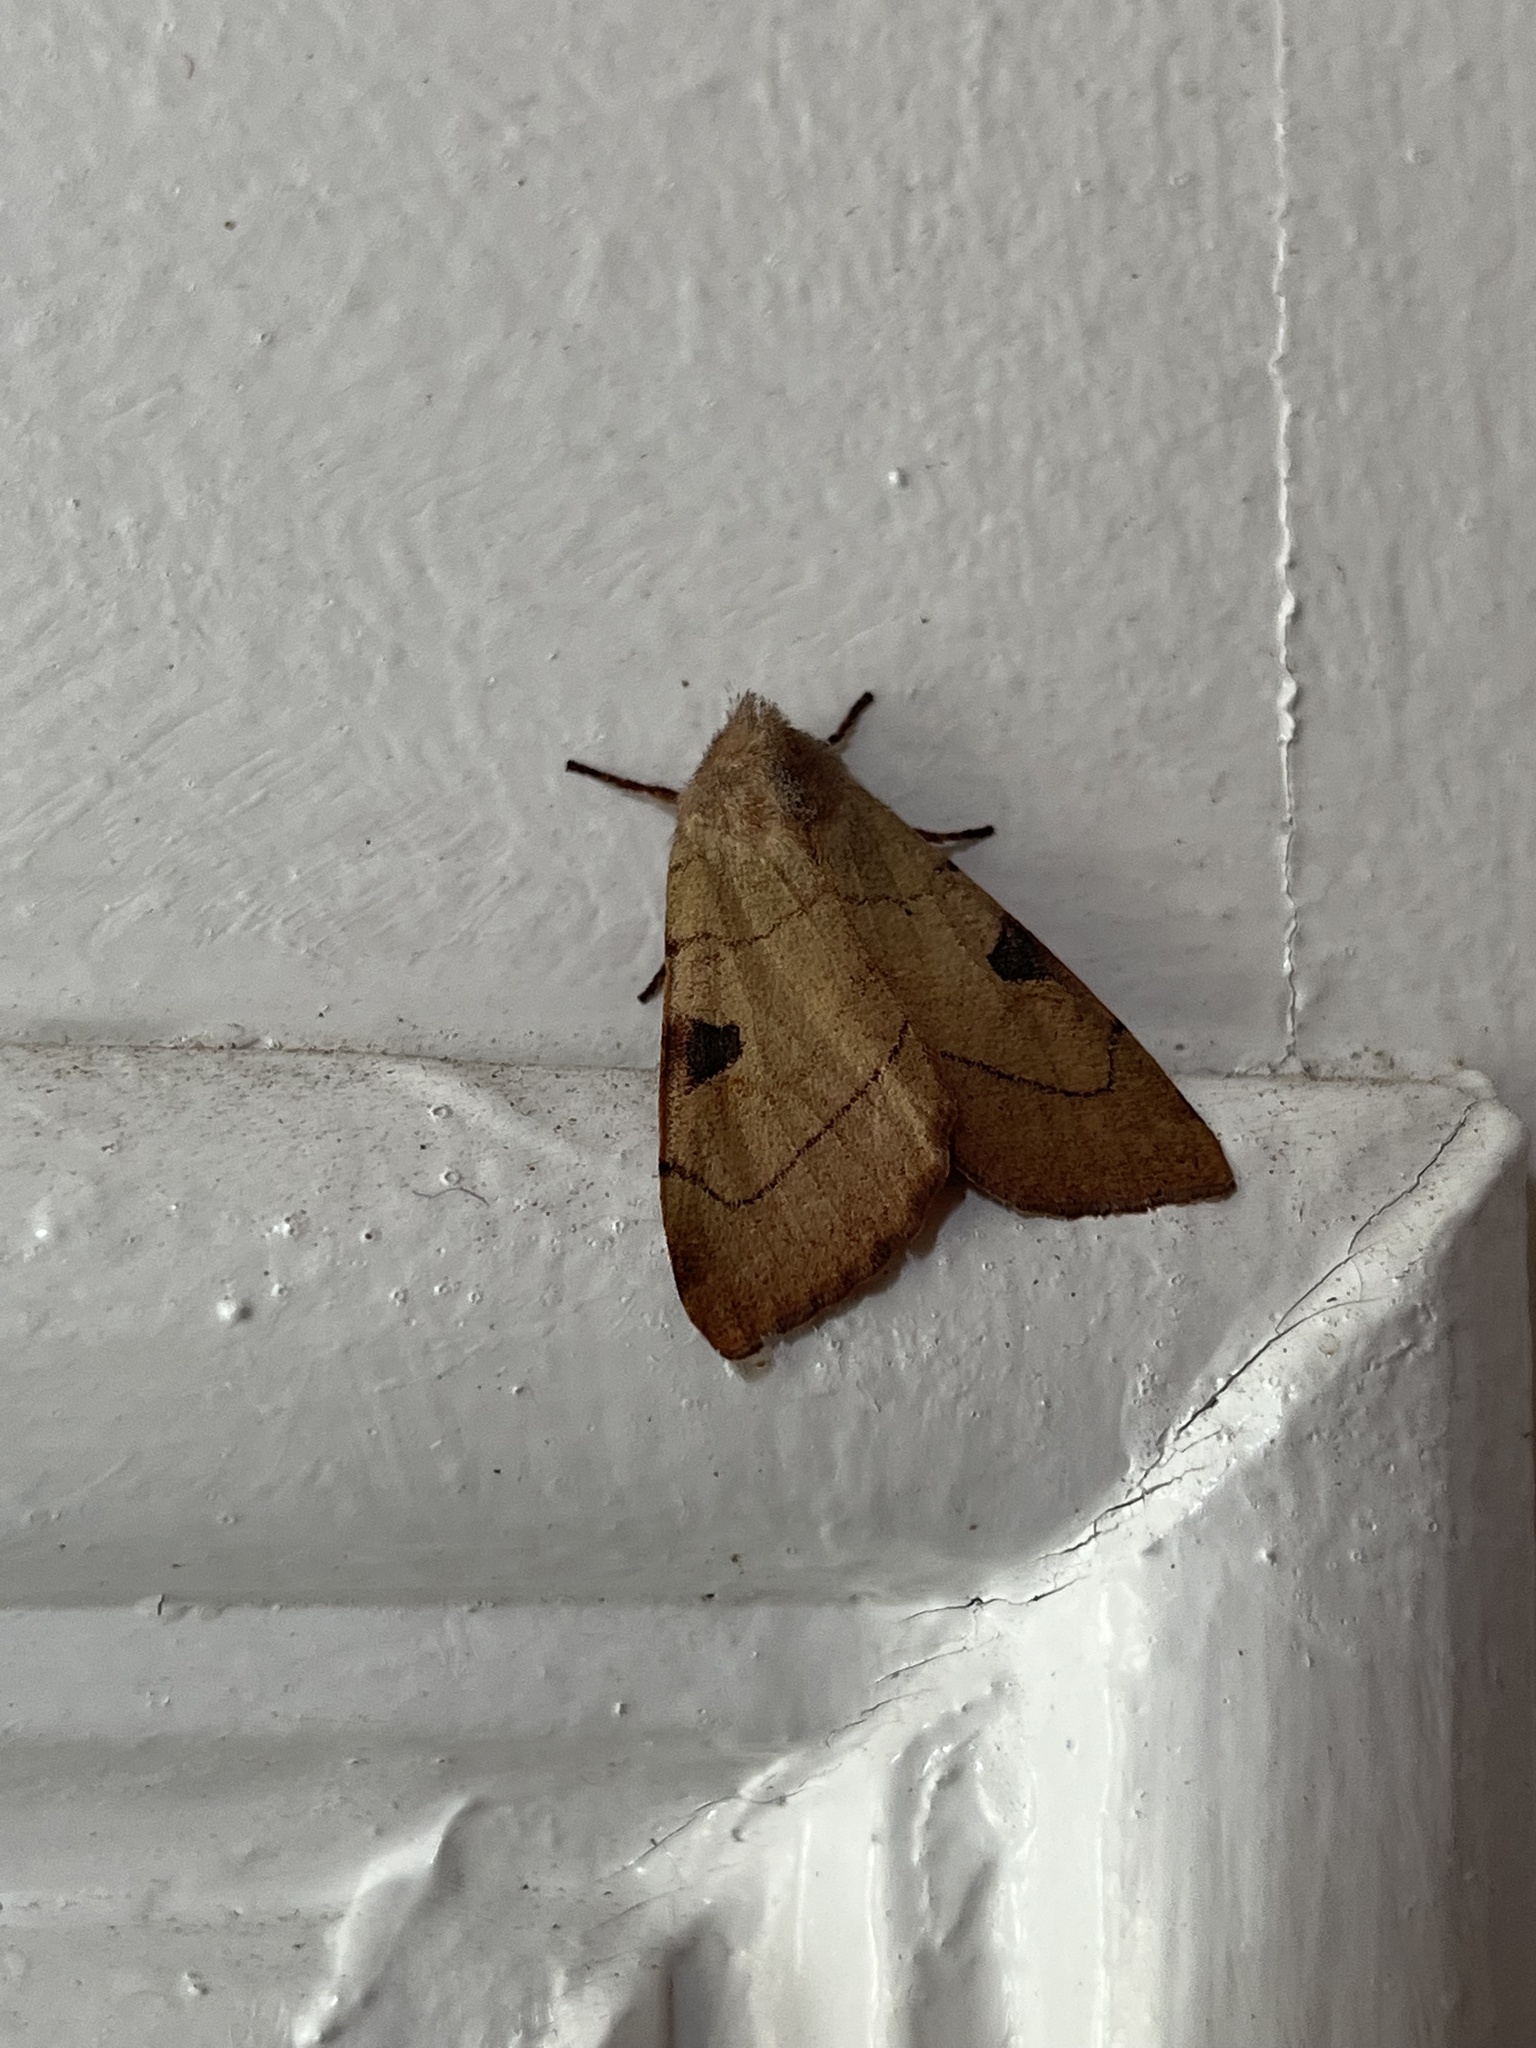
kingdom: Animalia
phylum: Arthropoda
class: Insecta
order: Lepidoptera
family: Noctuidae
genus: Choephora
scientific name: Choephora fungorum
